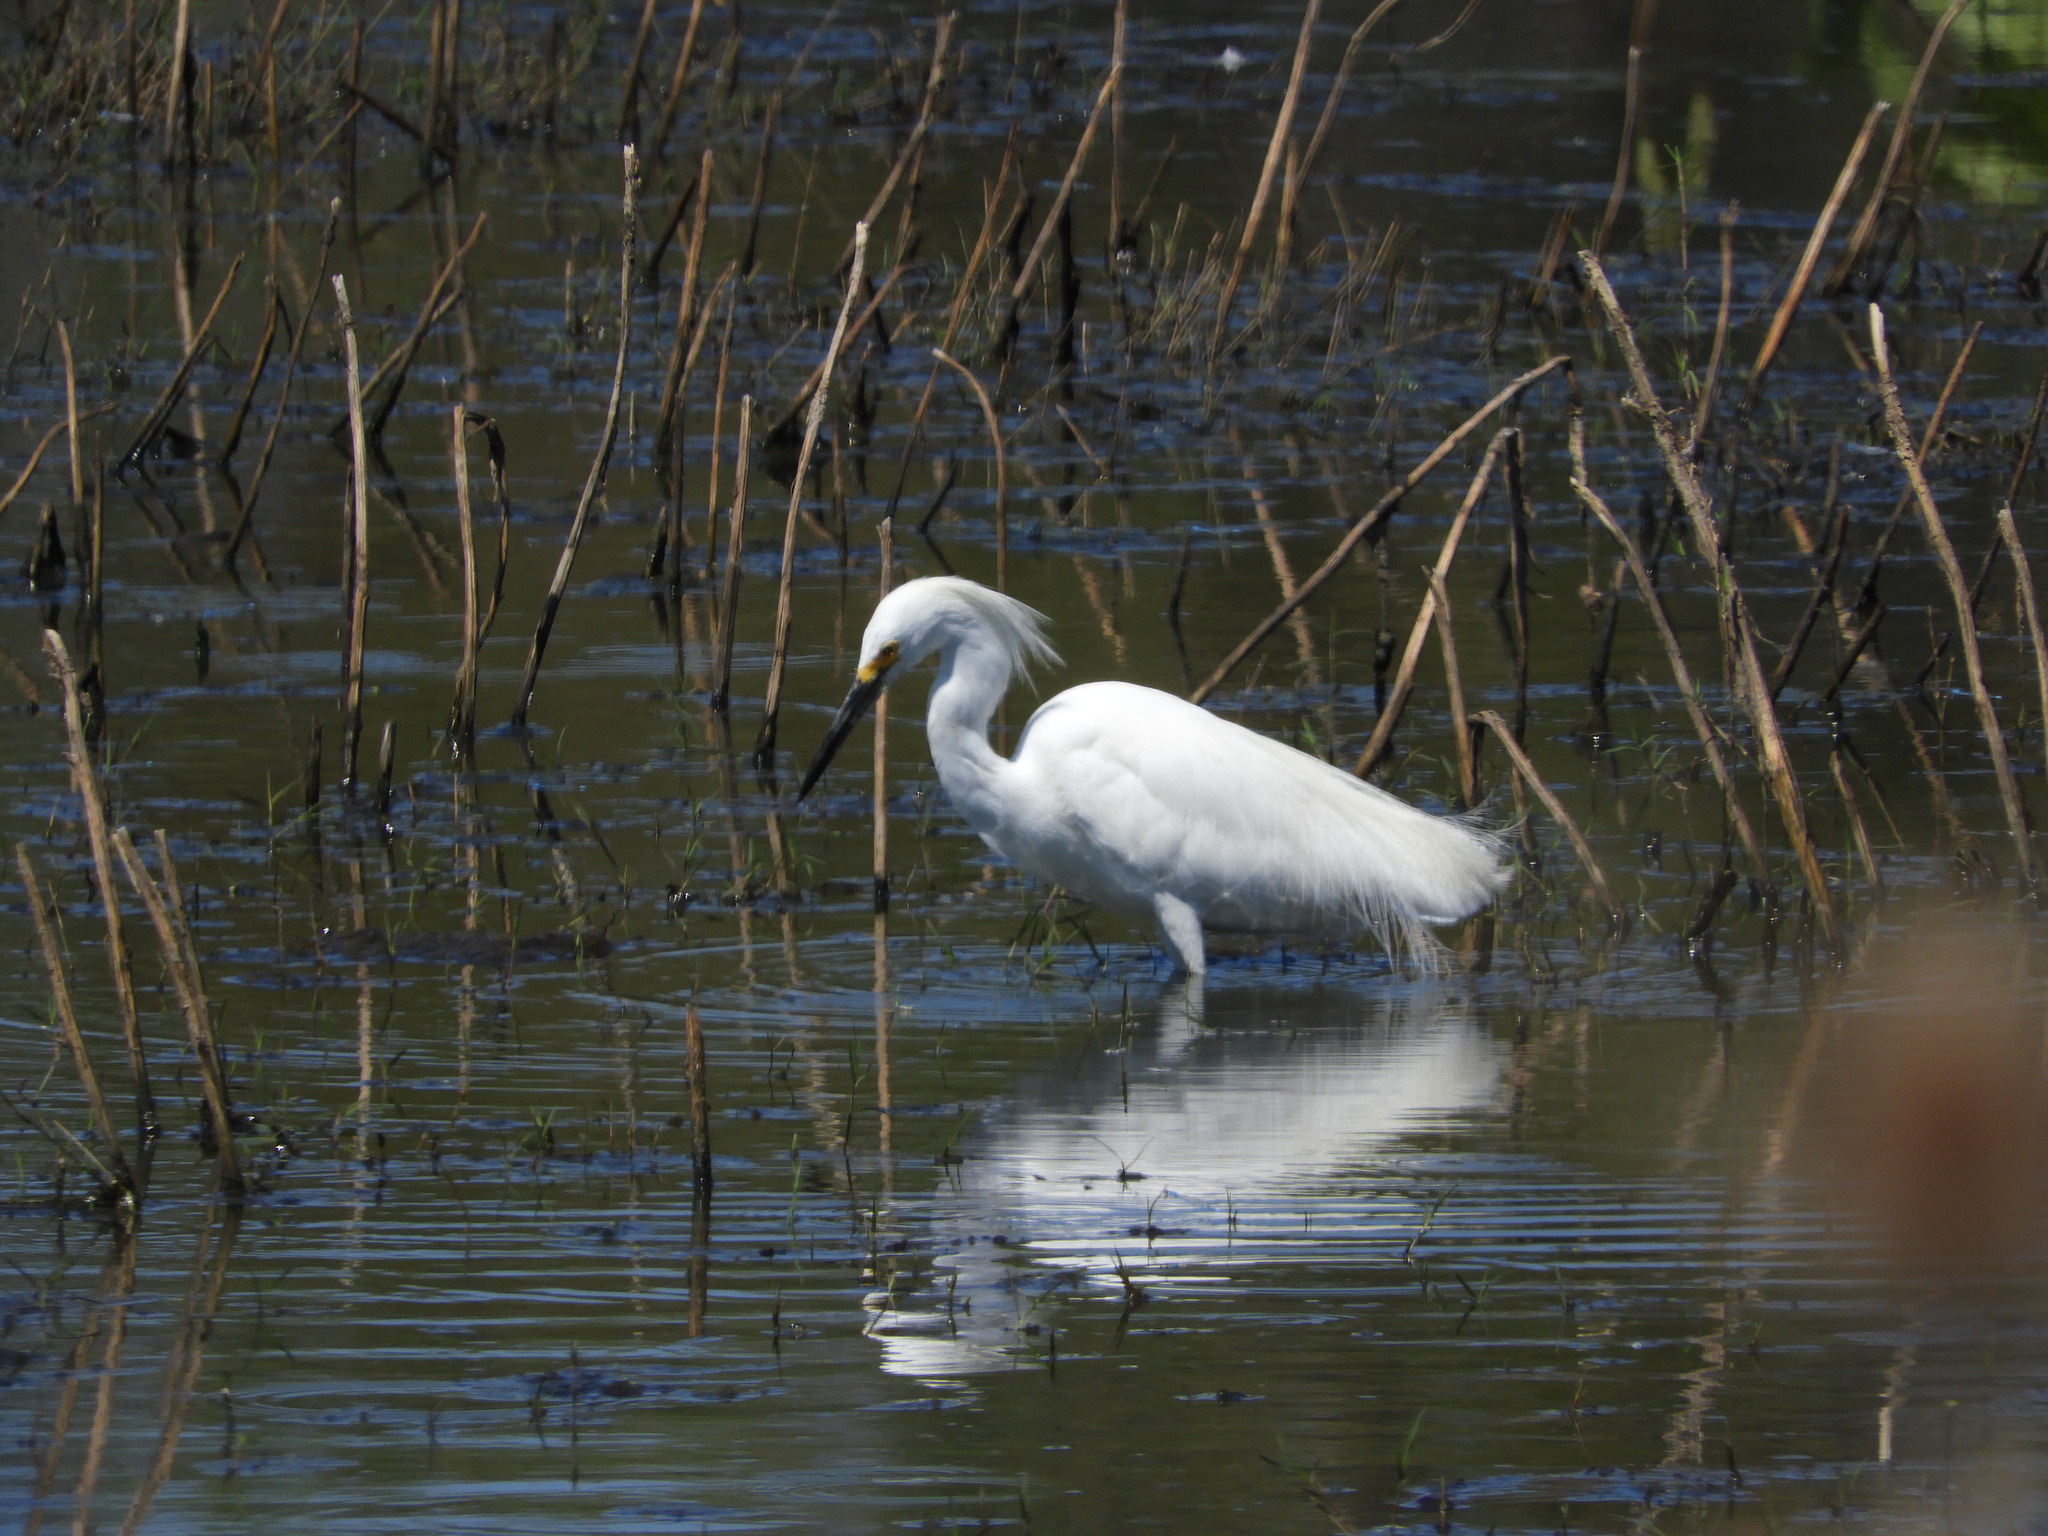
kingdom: Animalia
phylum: Chordata
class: Aves
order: Pelecaniformes
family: Ardeidae
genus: Egretta
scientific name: Egretta thula
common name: Snowy egret
